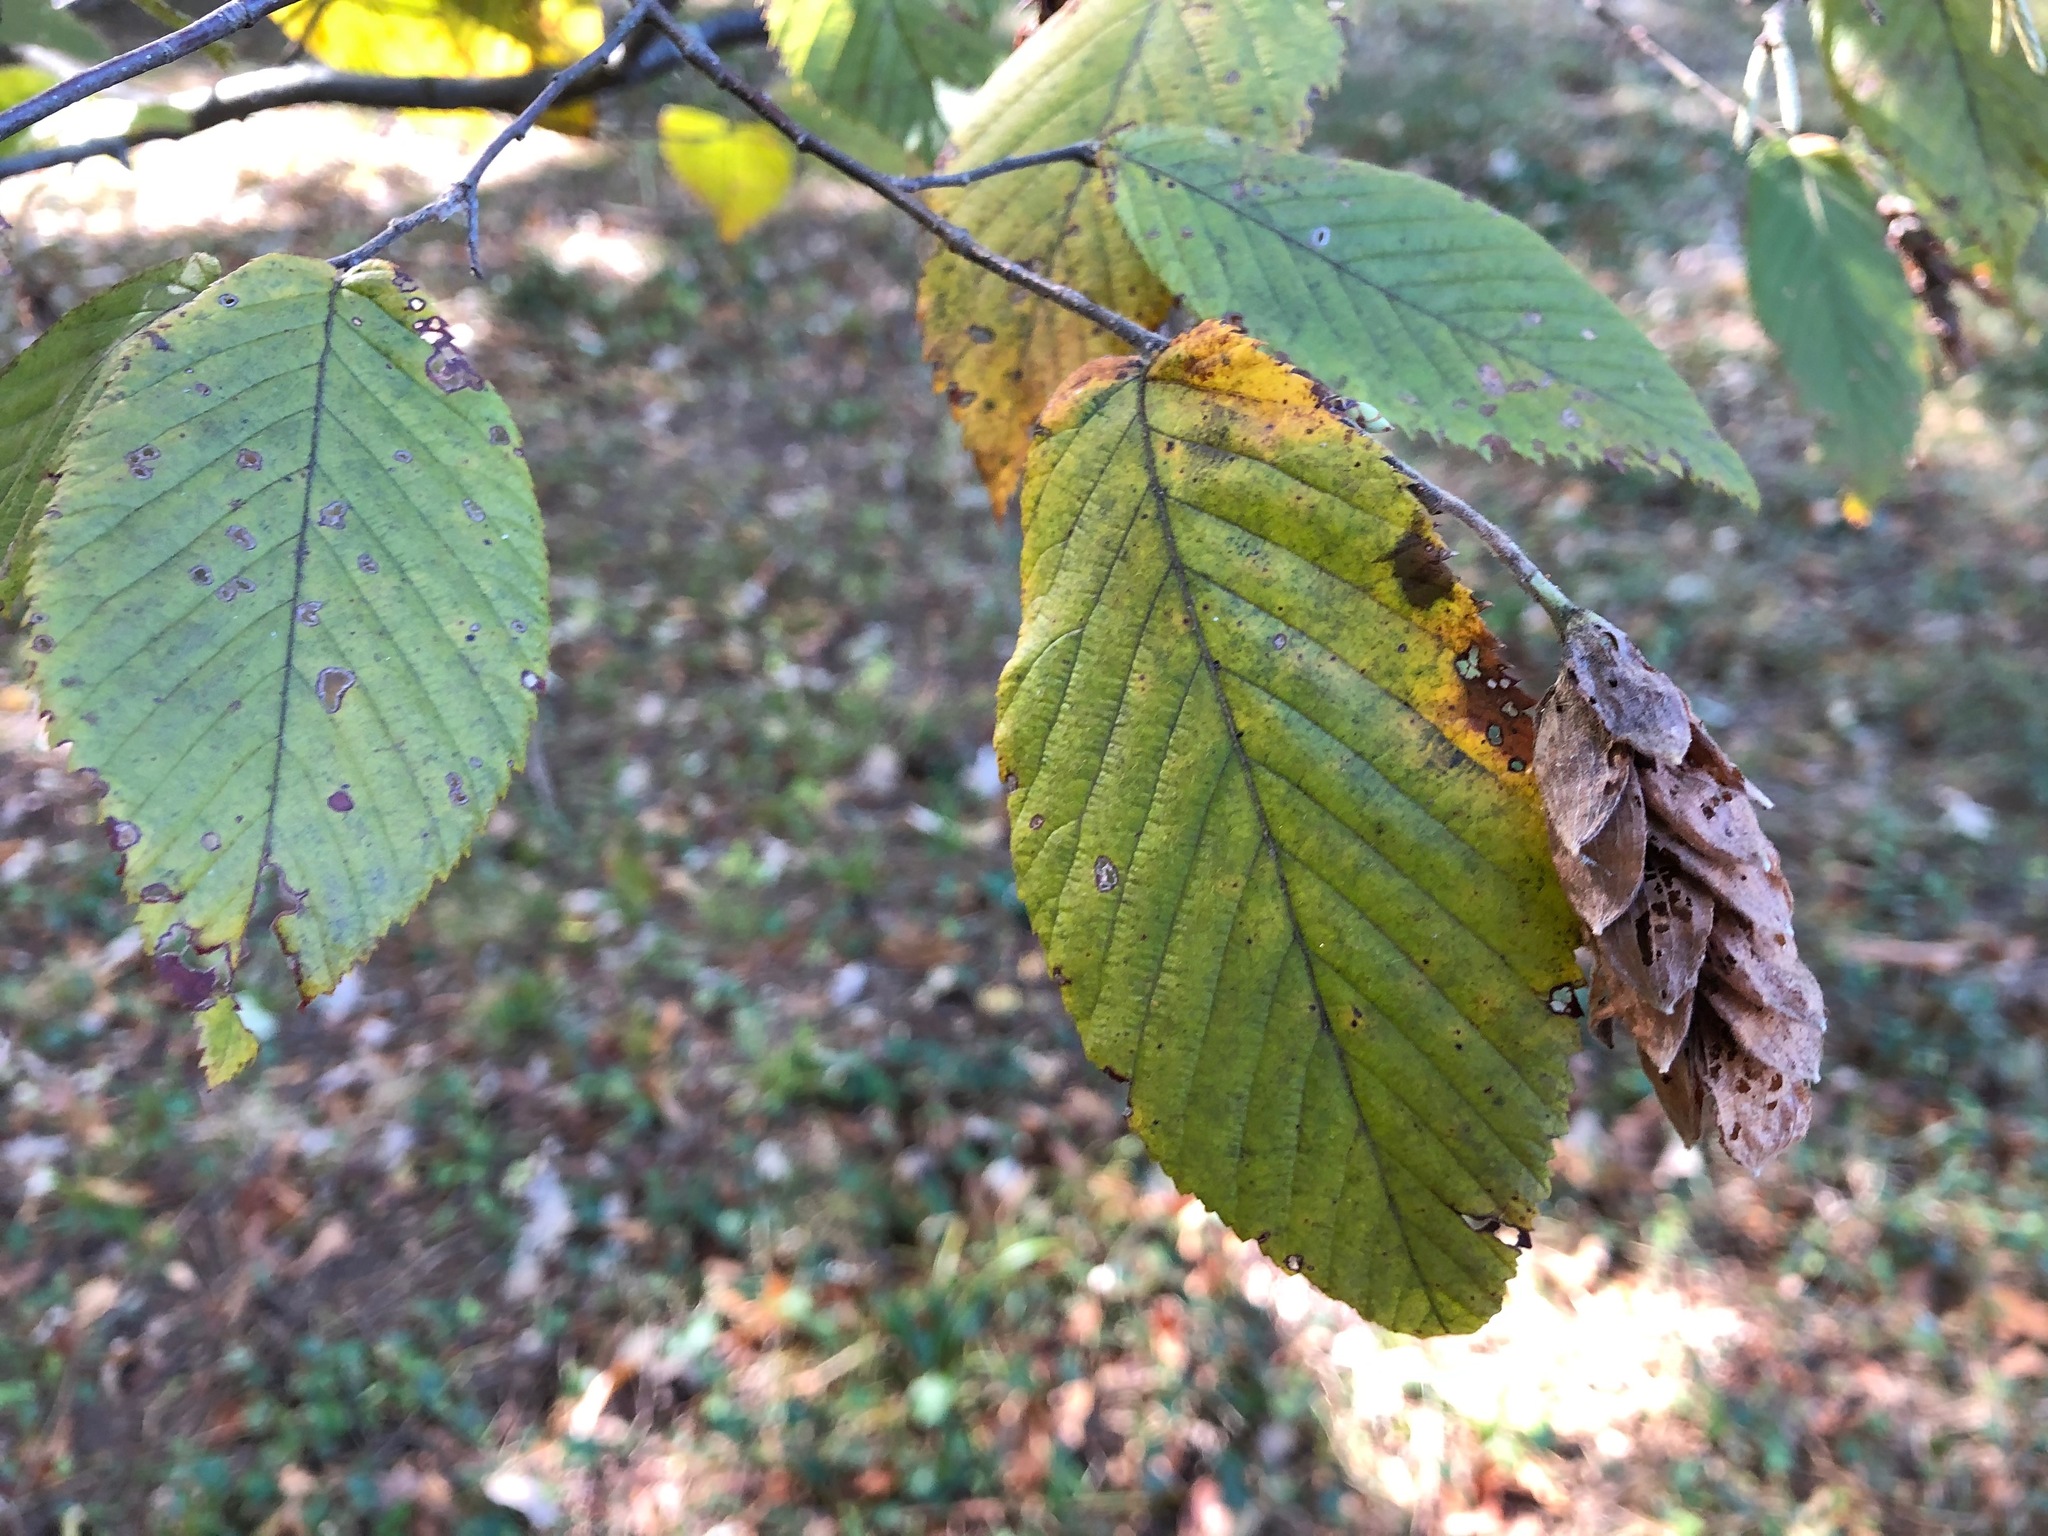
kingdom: Plantae
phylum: Tracheophyta
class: Magnoliopsida
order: Fagales
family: Betulaceae
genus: Ostrya
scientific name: Ostrya virginiana
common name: Ironwood
